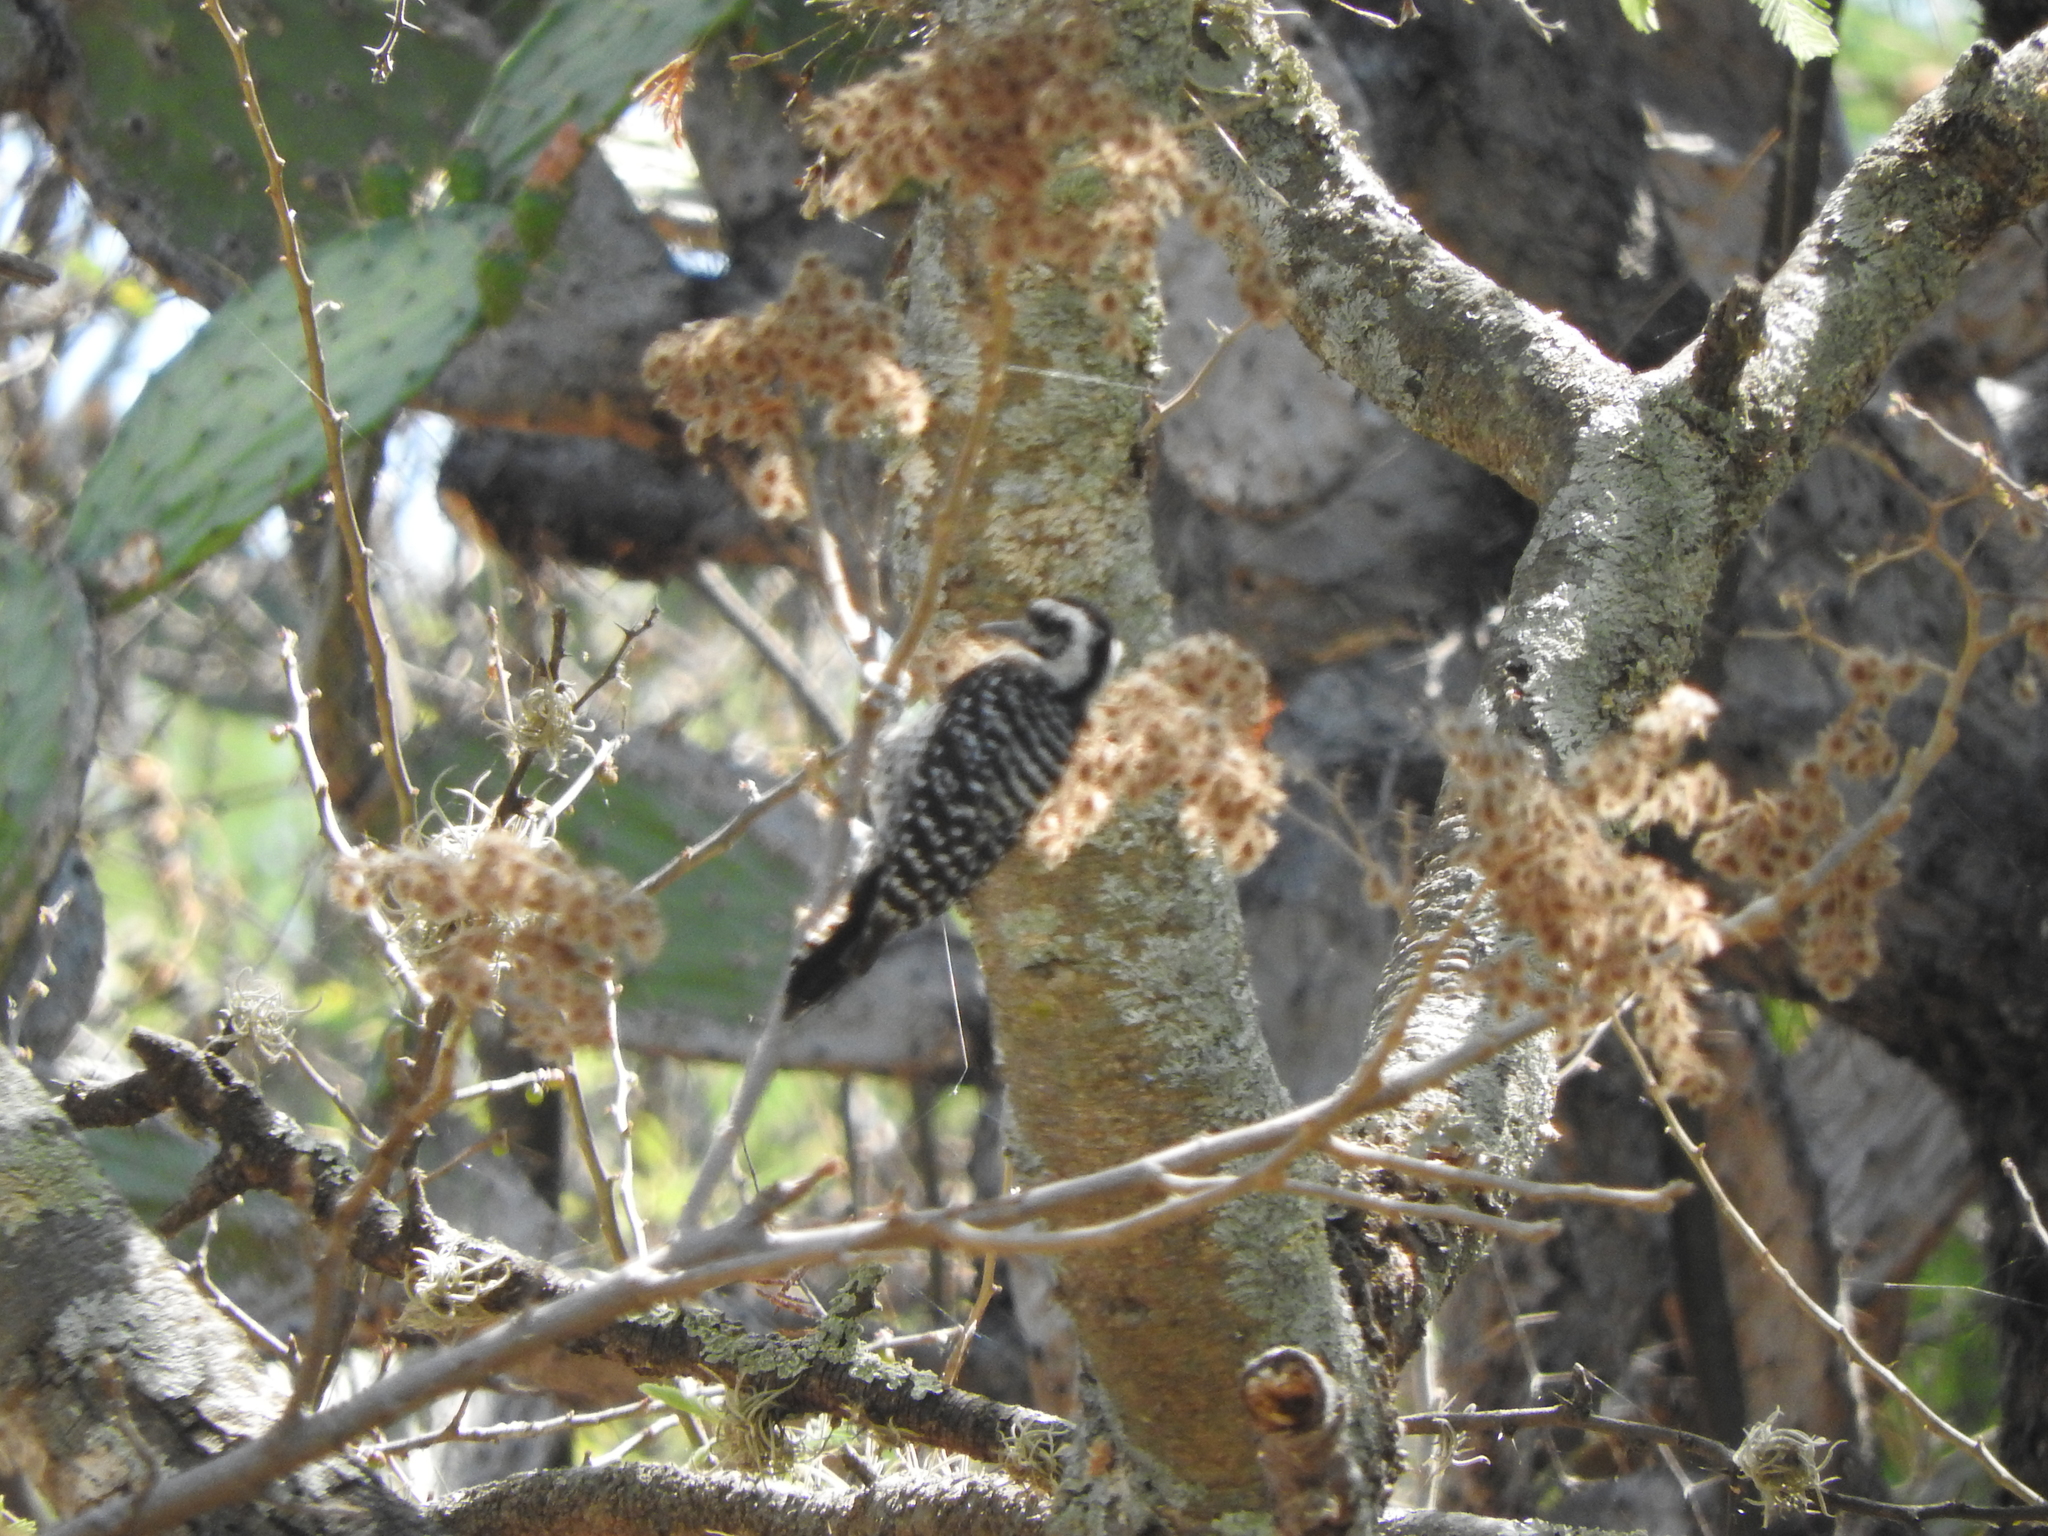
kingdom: Animalia
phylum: Chordata
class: Aves
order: Piciformes
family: Picidae
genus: Dryobates
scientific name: Dryobates scalaris
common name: Ladder-backed woodpecker
